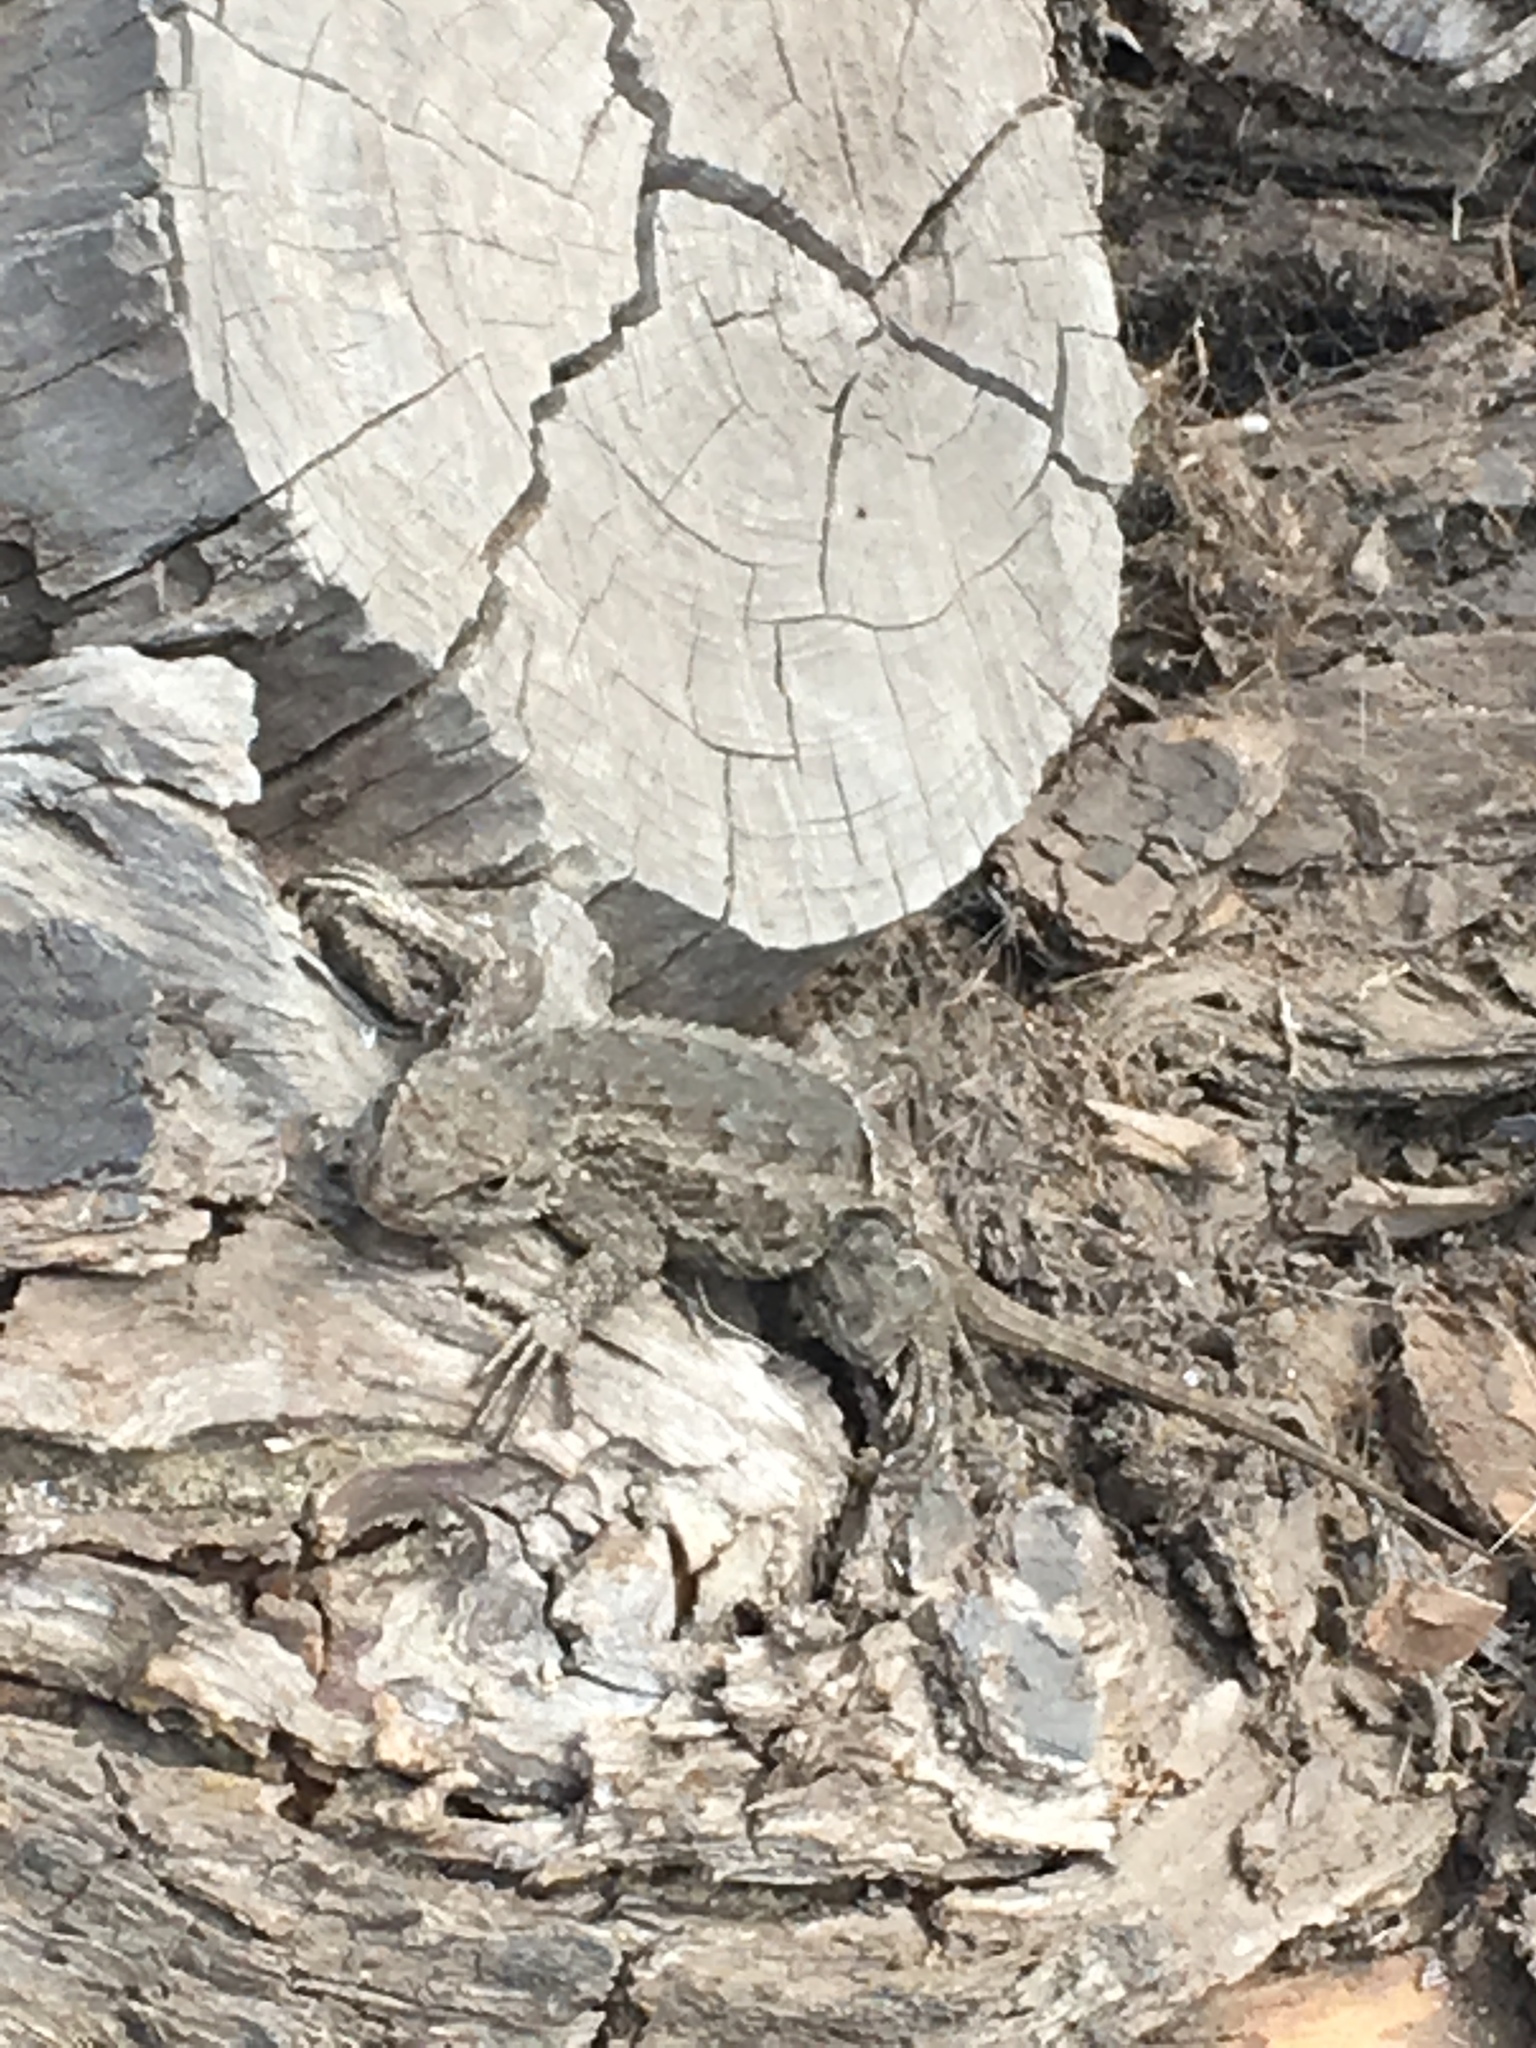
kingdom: Animalia
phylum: Chordata
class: Squamata
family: Phrynosomatidae
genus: Sceloporus
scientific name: Sceloporus occidentalis
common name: Western fence lizard
